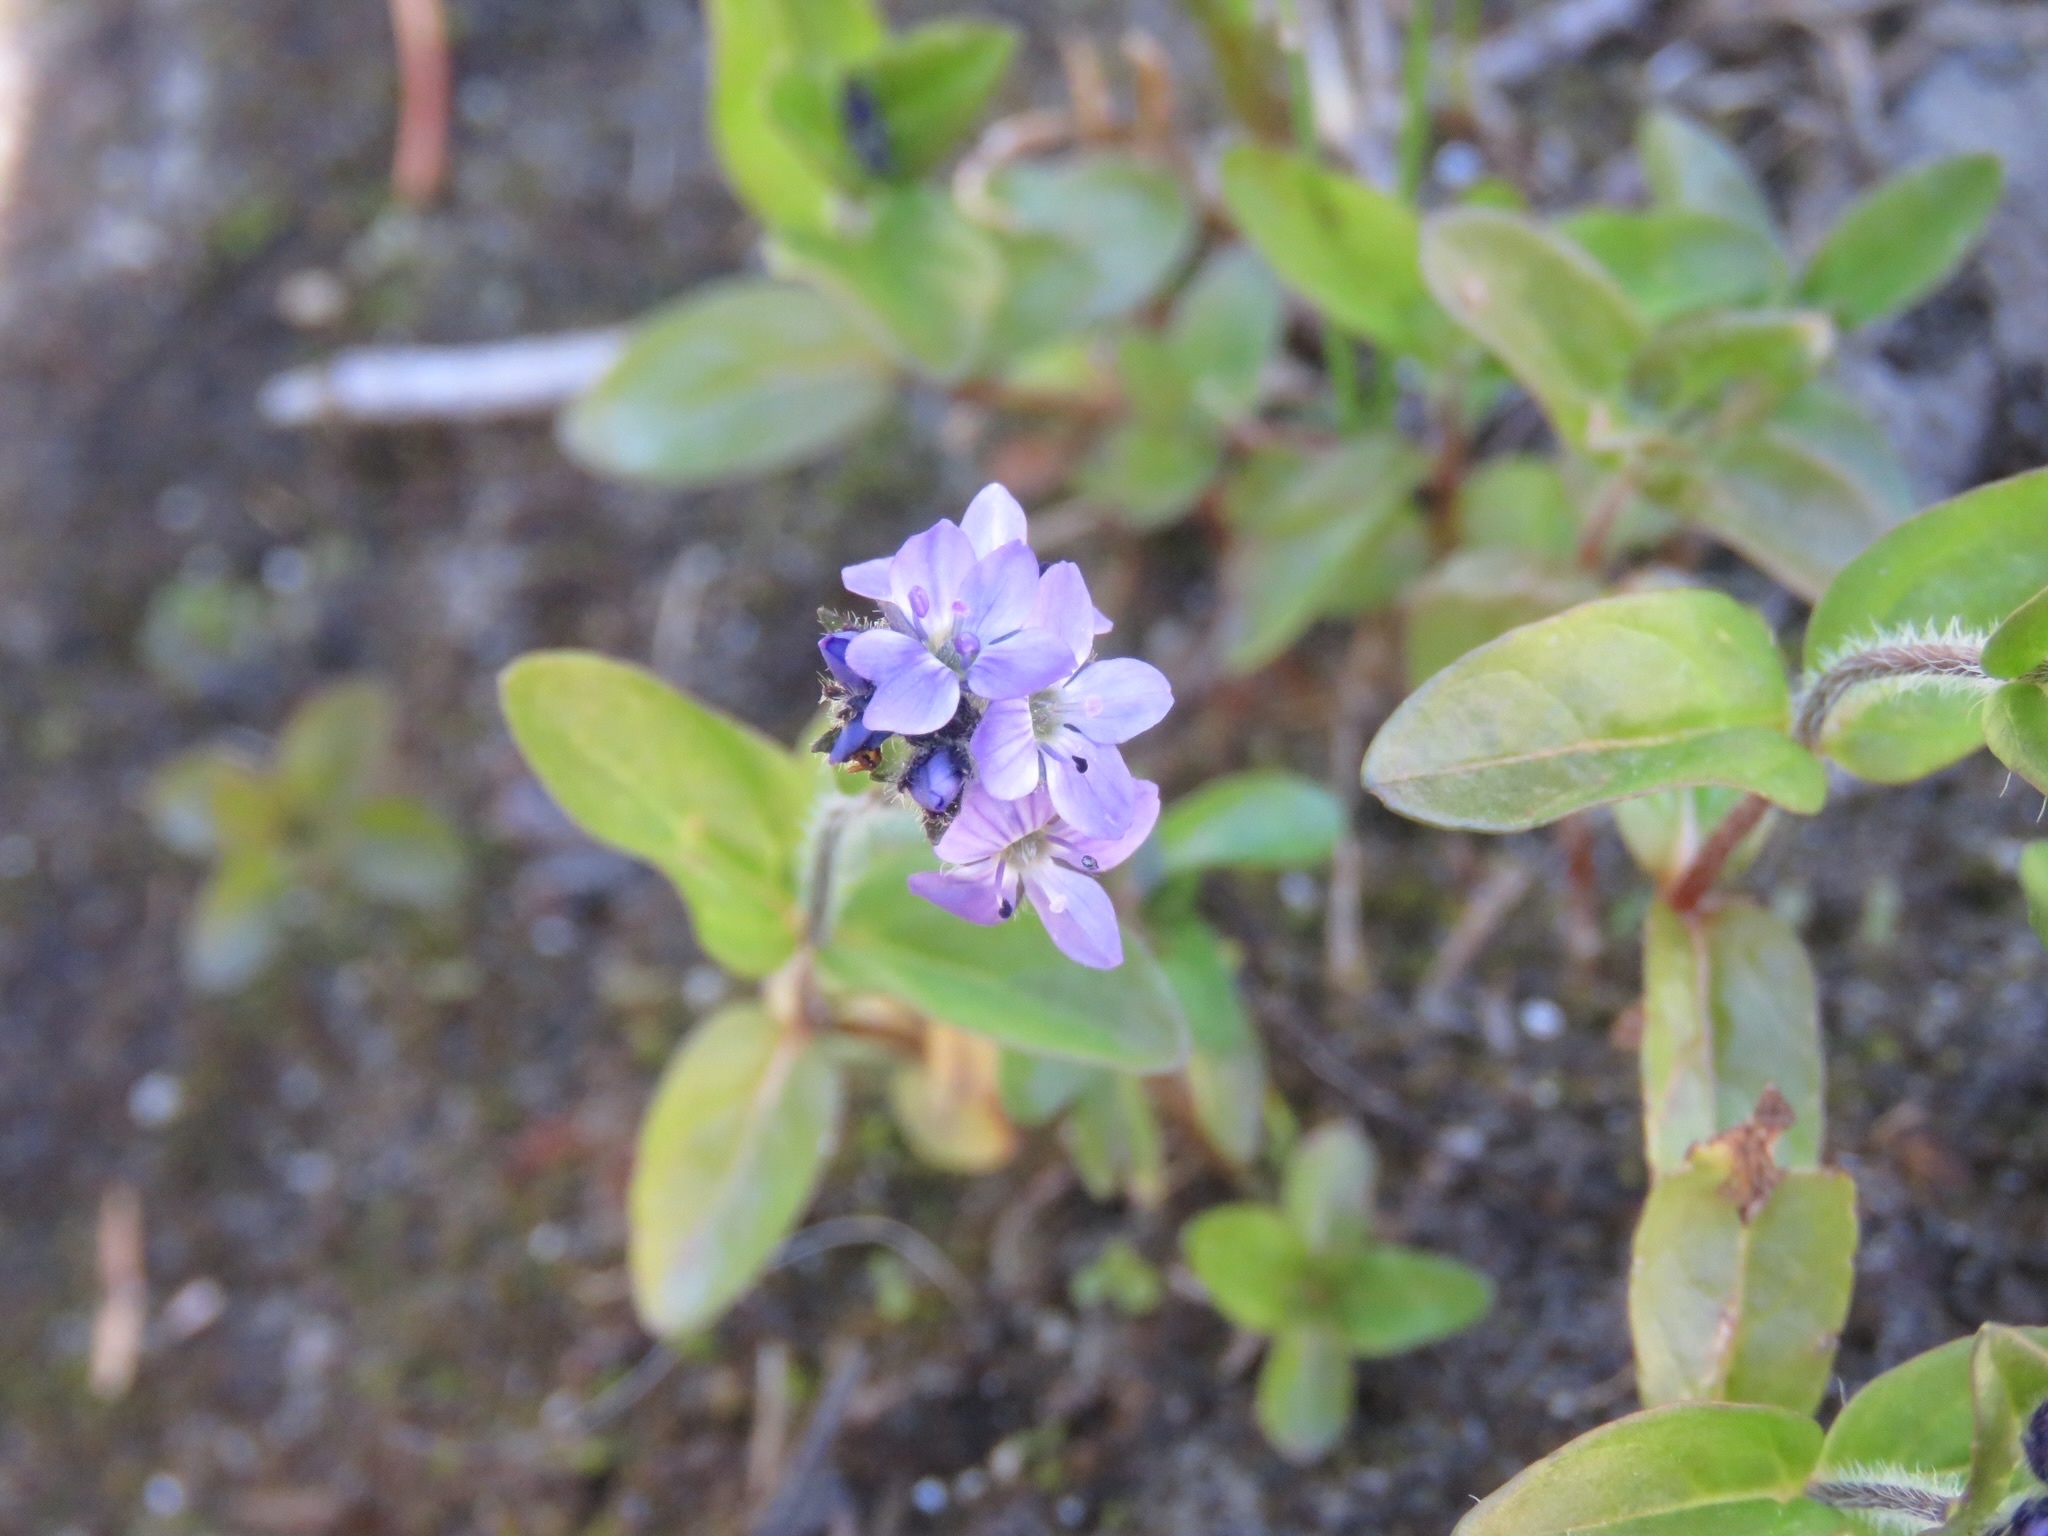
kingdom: Plantae
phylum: Tracheophyta
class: Magnoliopsida
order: Lamiales
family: Plantaginaceae
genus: Veronica
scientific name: Veronica wormskjoldii
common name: American alpine speedwell
